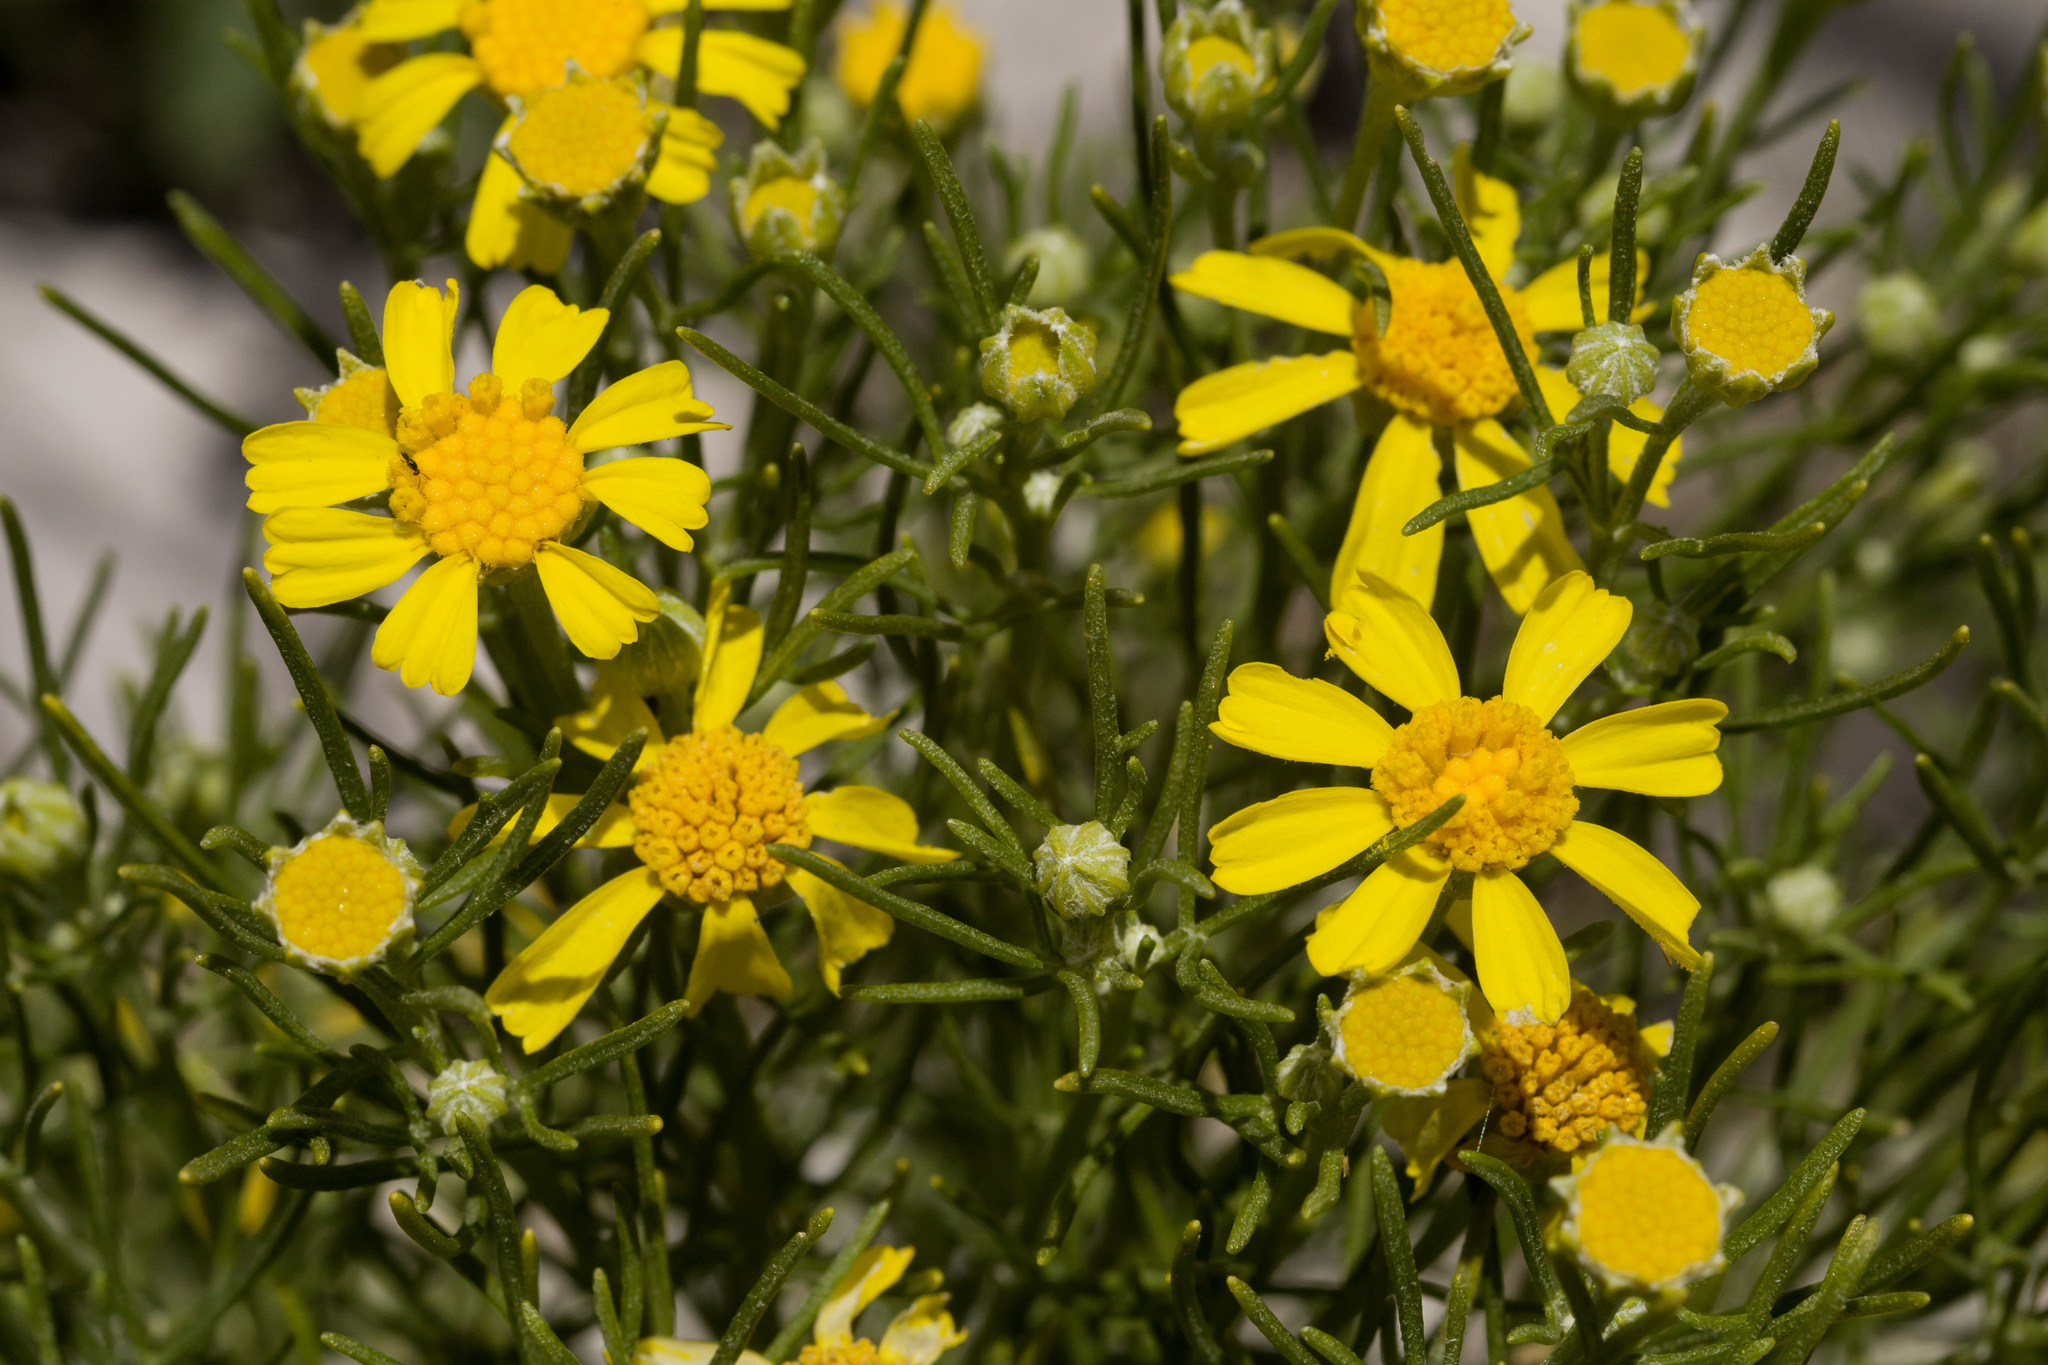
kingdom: Plantae
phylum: Tracheophyta
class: Magnoliopsida
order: Asterales
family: Asteraceae
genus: Hymenoxys
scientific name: Hymenoxys brachyactis
